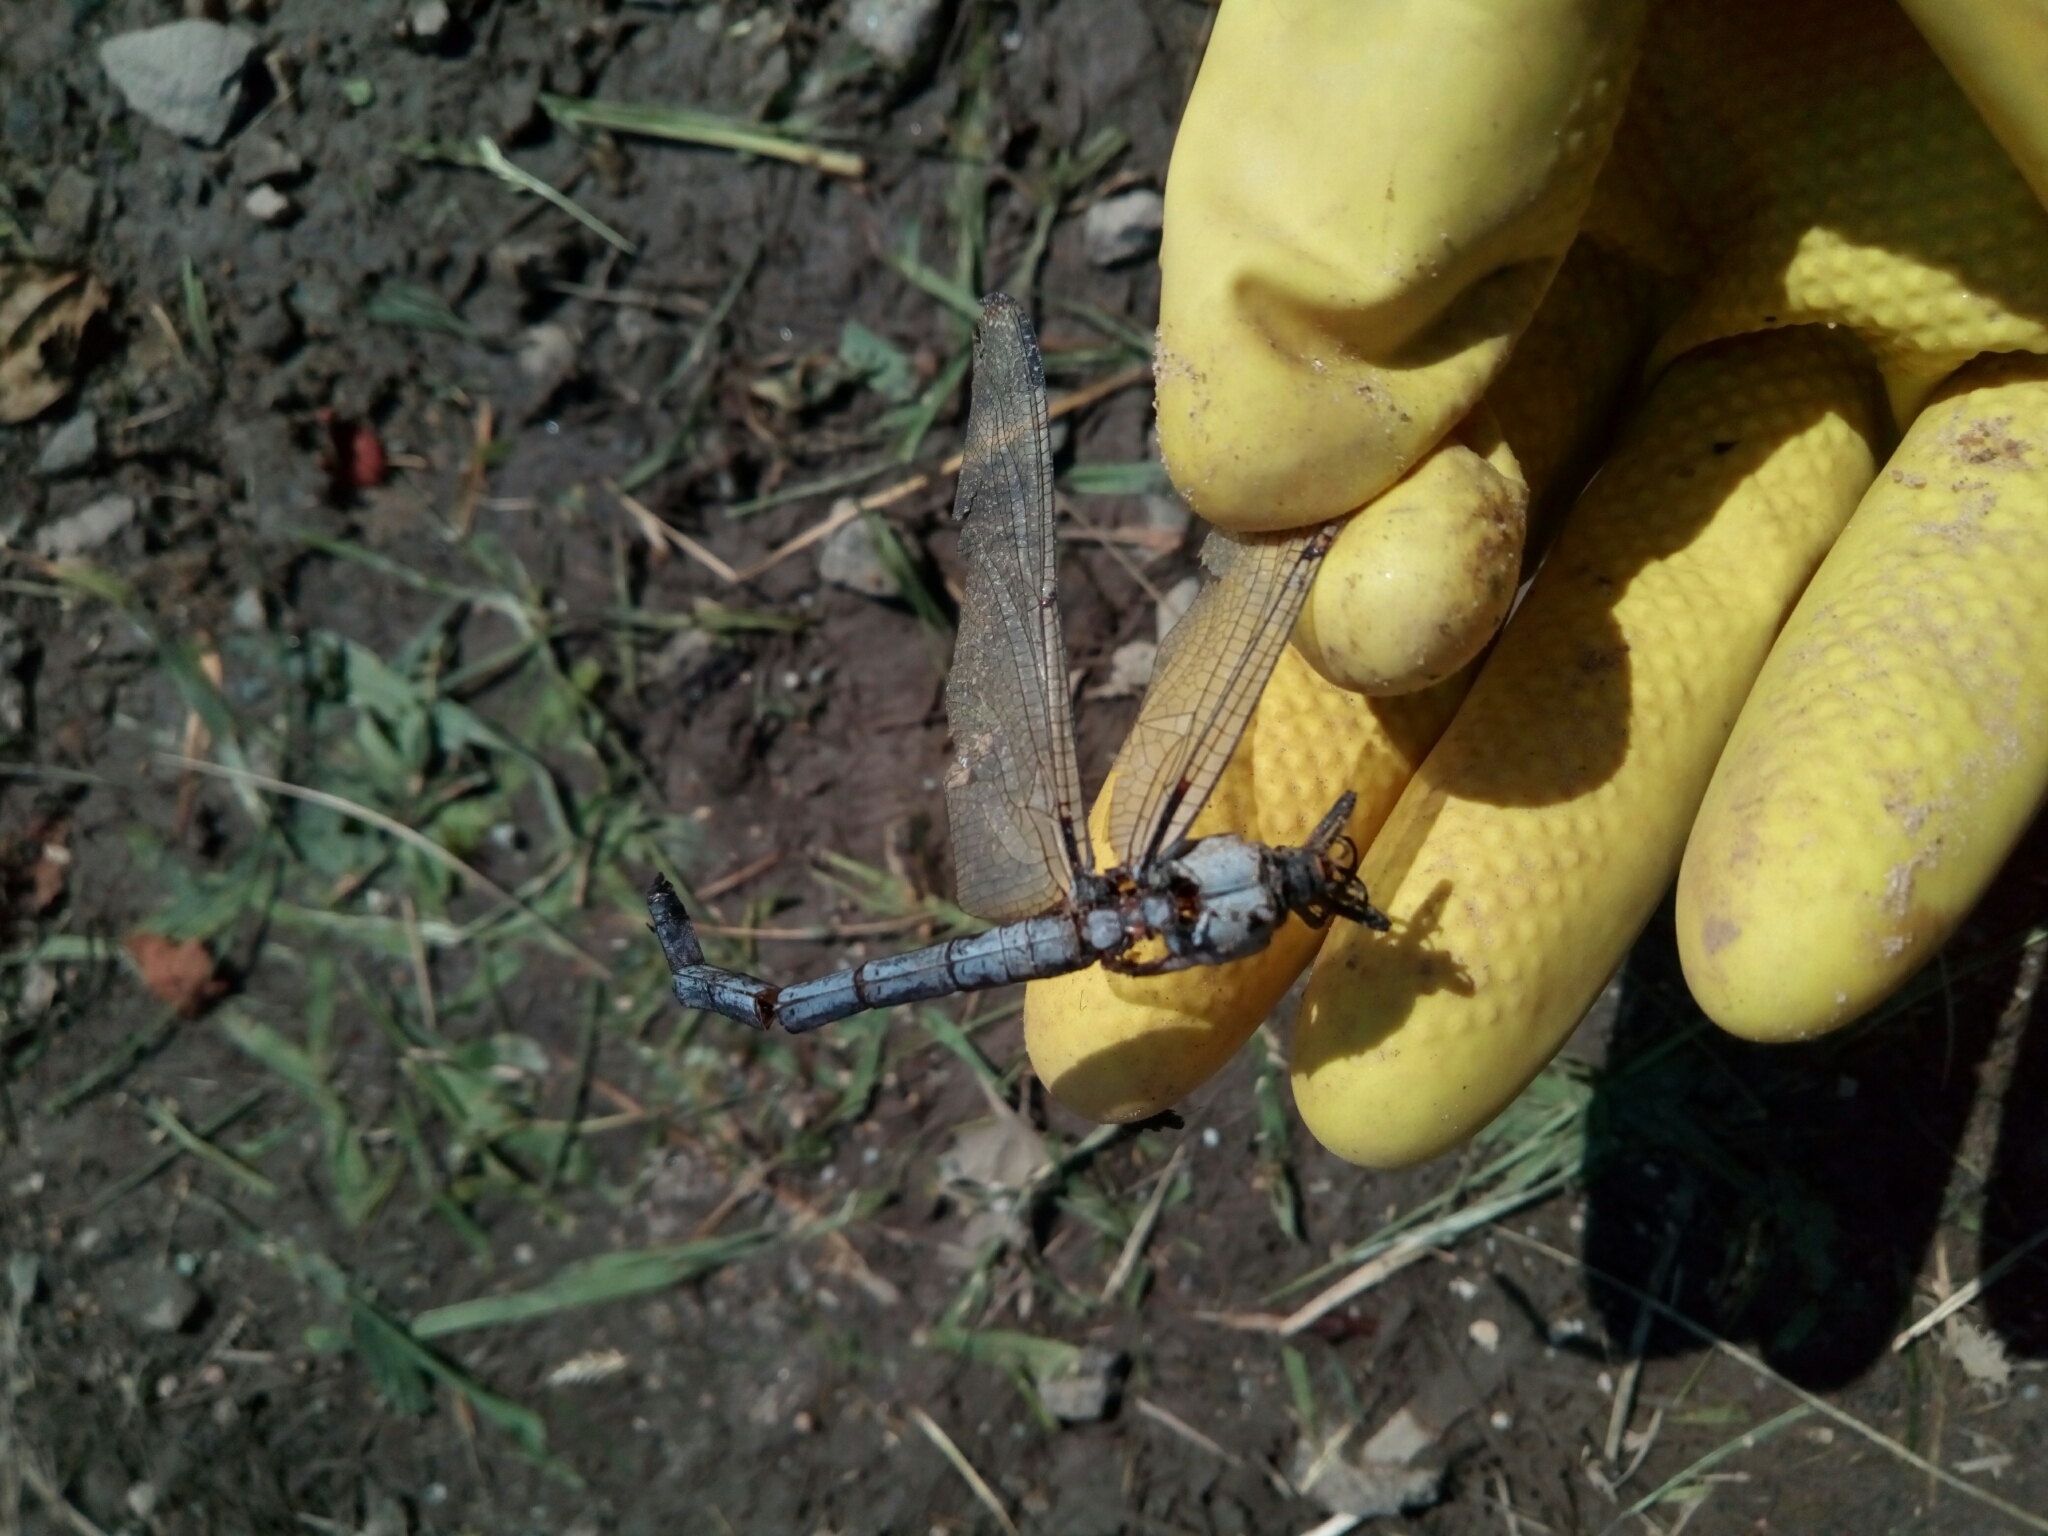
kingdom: Animalia
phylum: Arthropoda
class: Insecta
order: Odonata
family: Libellulidae
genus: Libellula
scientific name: Libellula vibrans
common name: Great blue skimmer
